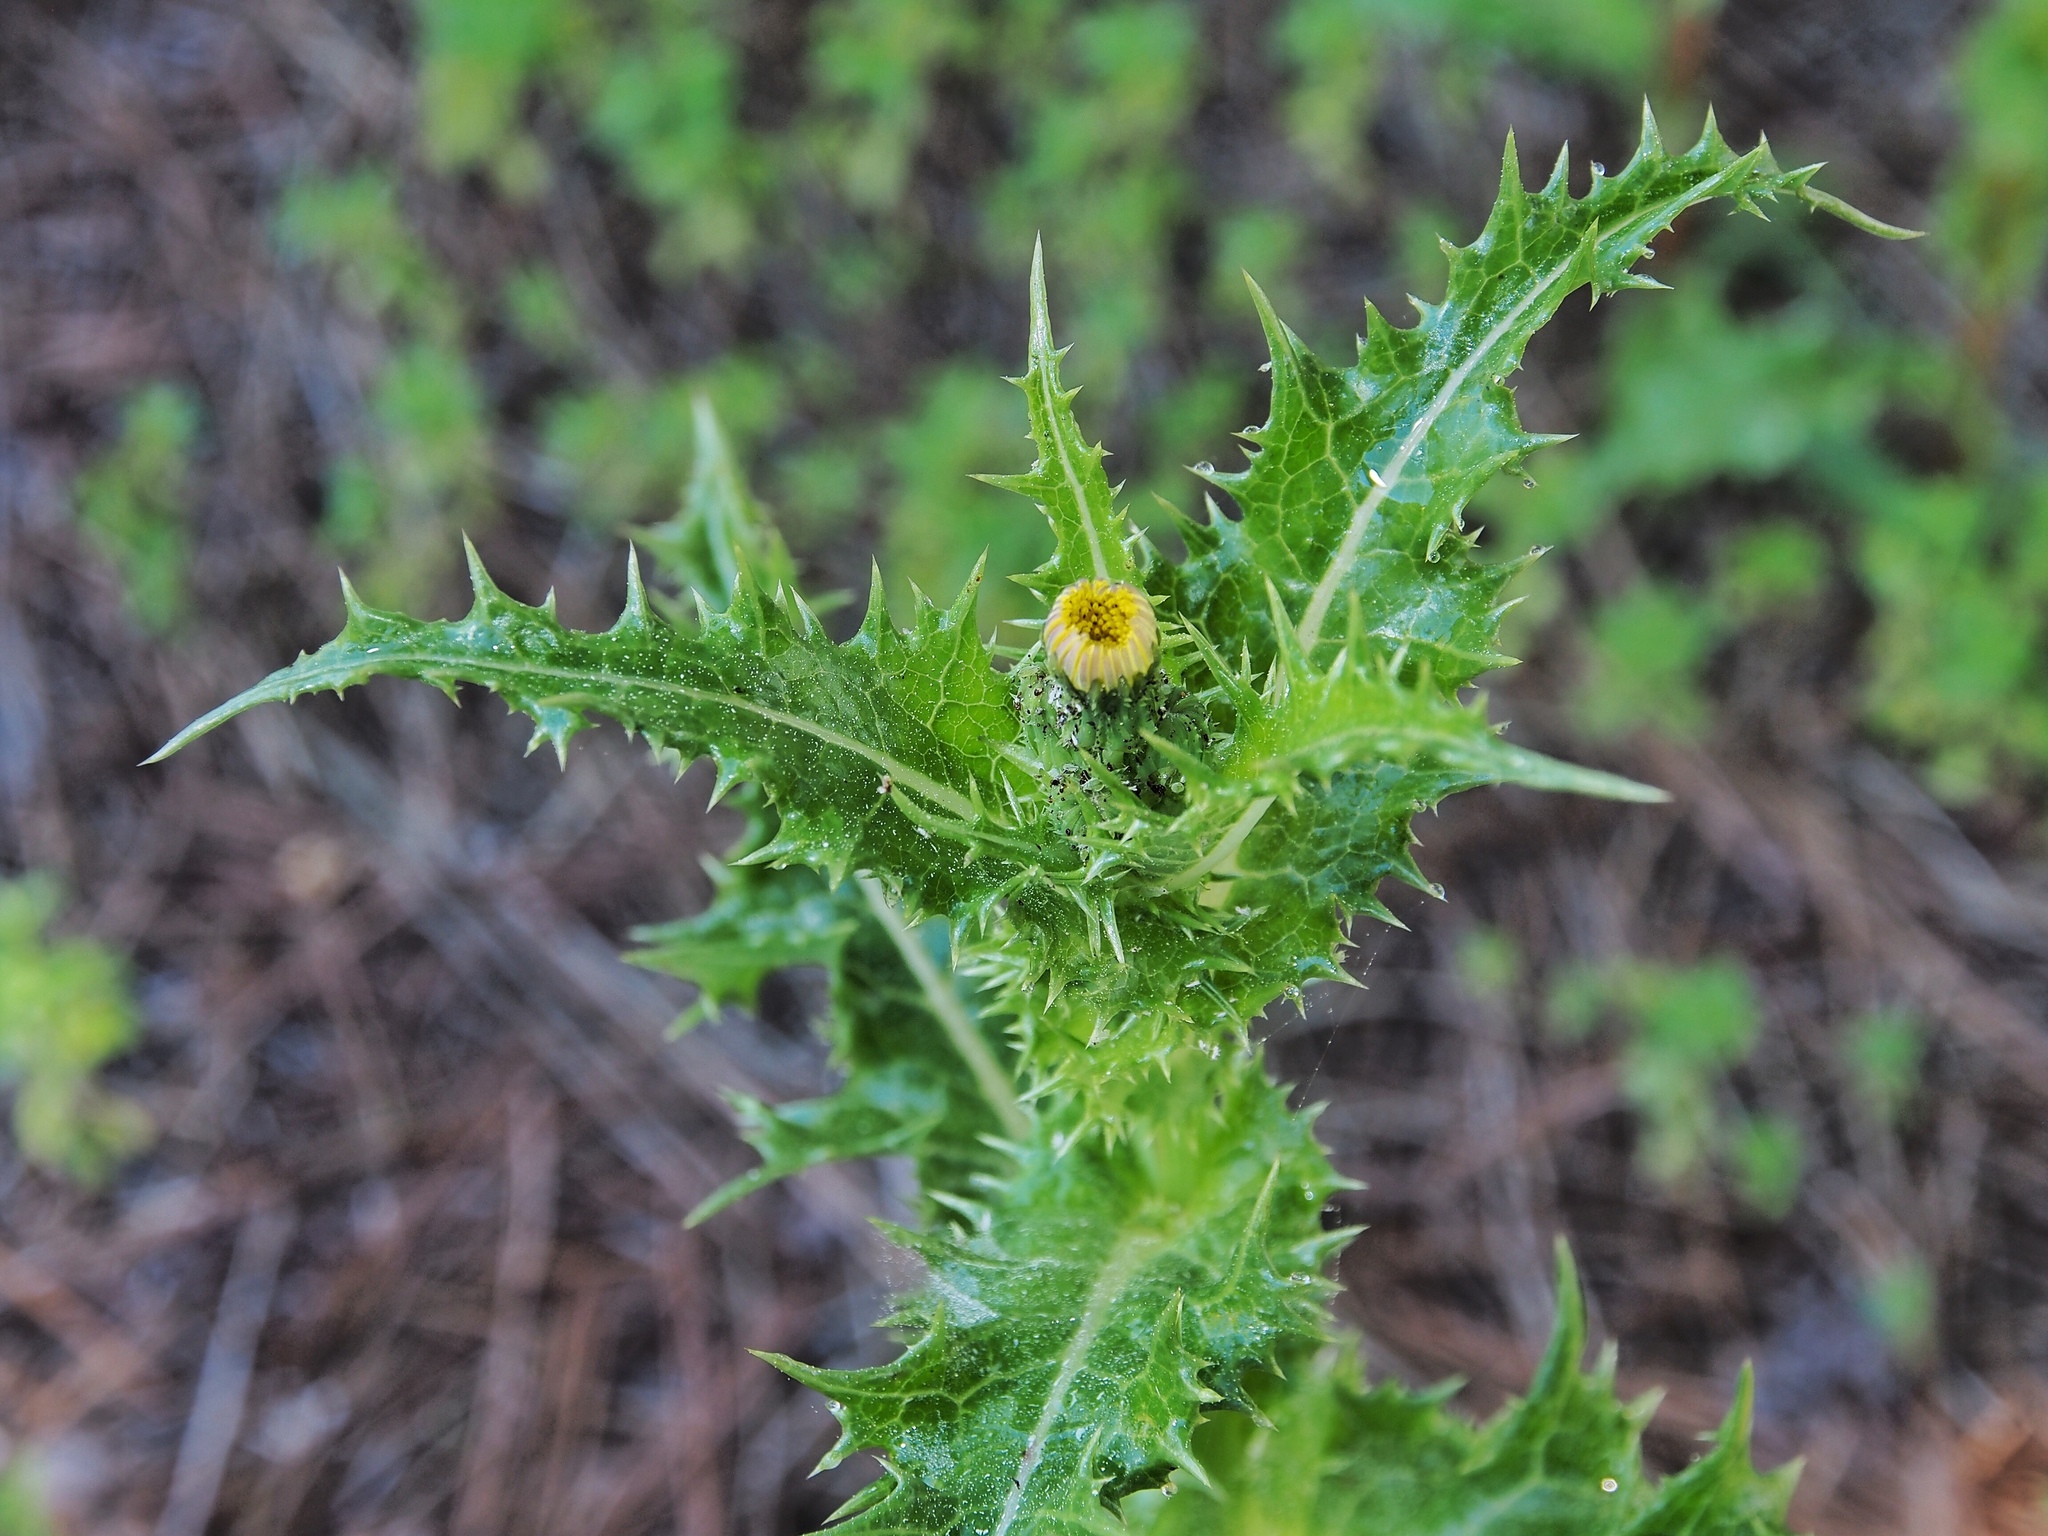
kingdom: Plantae
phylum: Tracheophyta
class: Magnoliopsida
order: Asterales
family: Asteraceae
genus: Sonchus
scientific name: Sonchus asper
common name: Prickly sow-thistle
